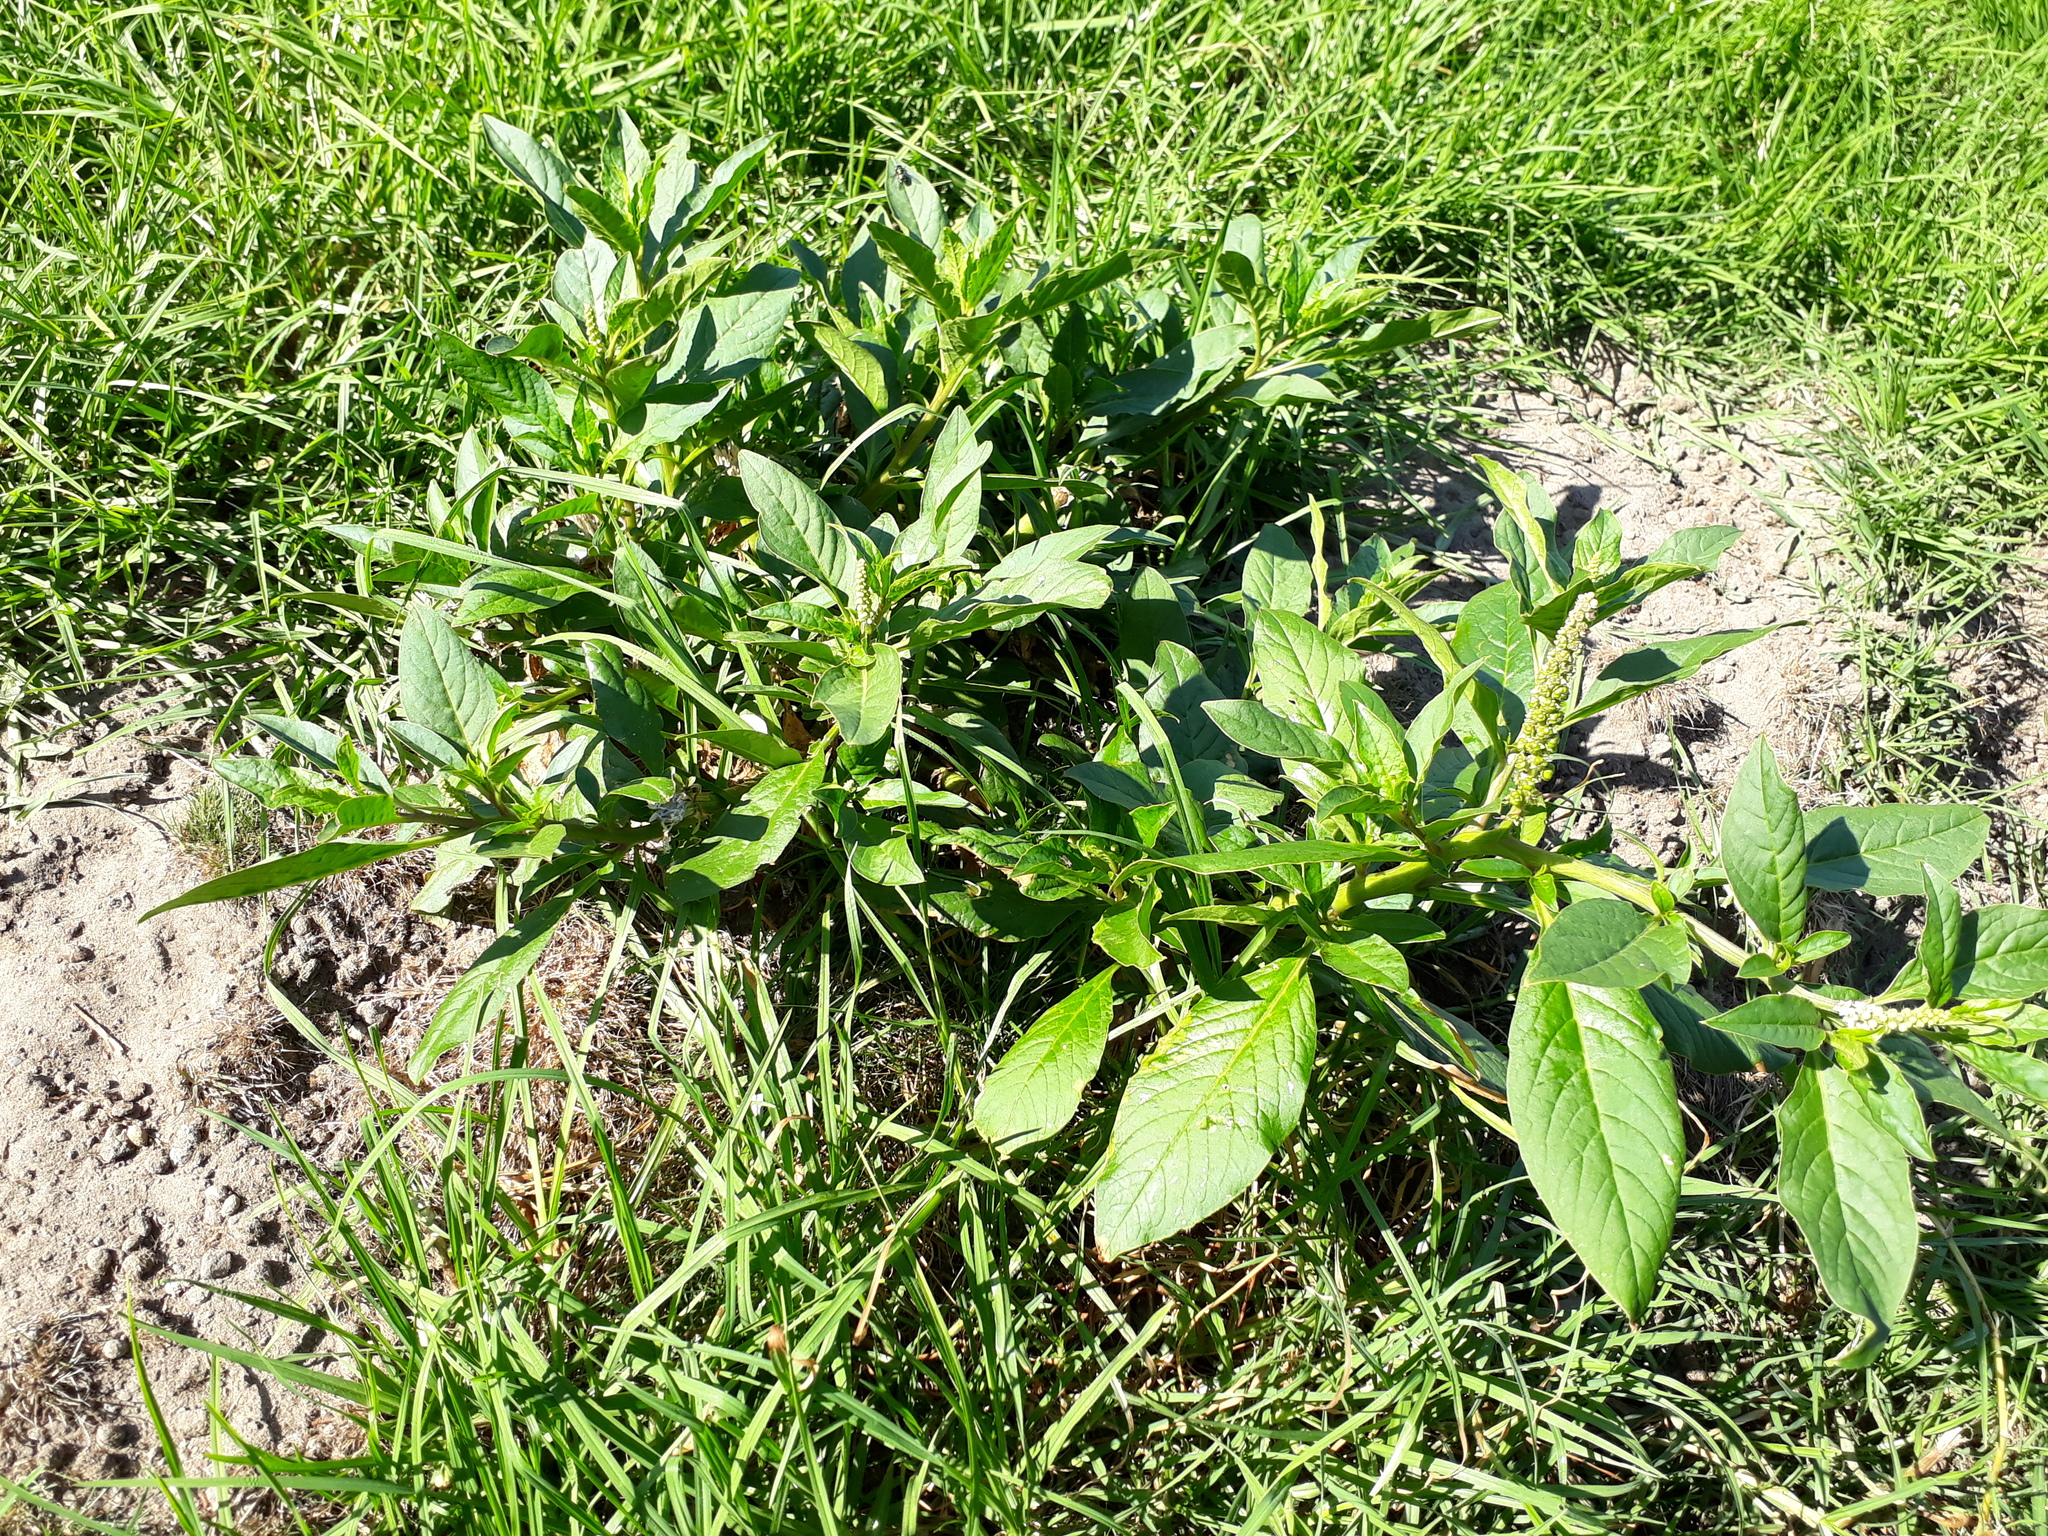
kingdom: Plantae
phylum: Tracheophyta
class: Magnoliopsida
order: Caryophyllales
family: Phytolaccaceae
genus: Phytolacca
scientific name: Phytolacca icosandra
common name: Button pokeweed
